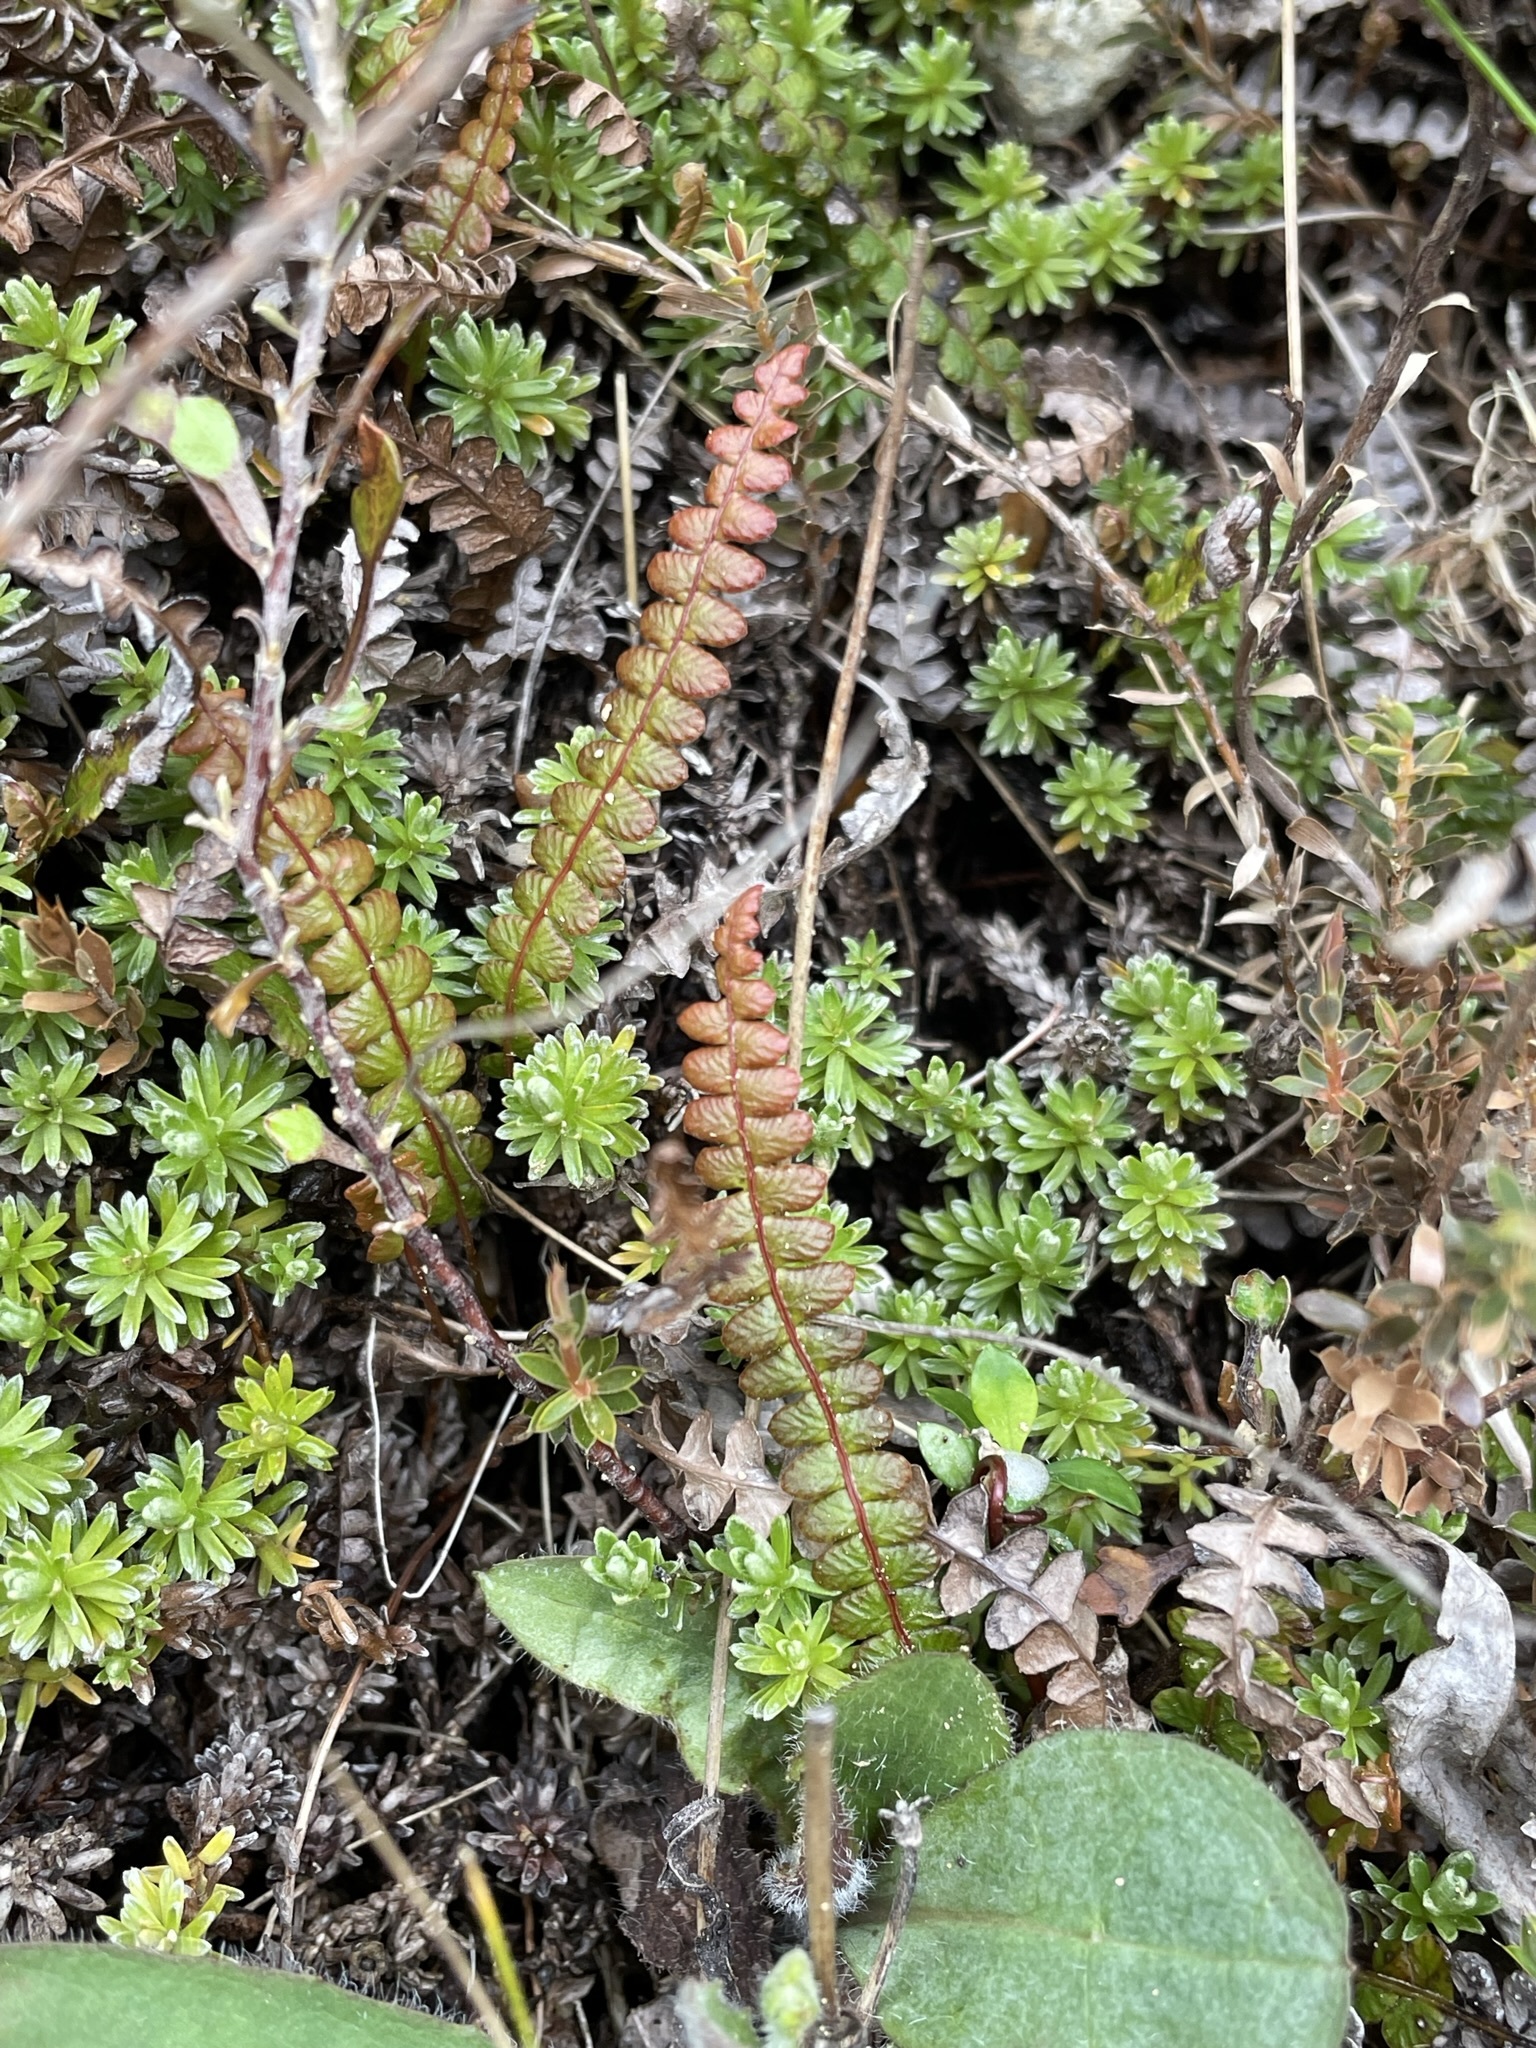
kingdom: Plantae
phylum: Tracheophyta
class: Polypodiopsida
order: Polypodiales
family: Blechnaceae
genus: Austroblechnum
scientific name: Austroblechnum penna-marina
